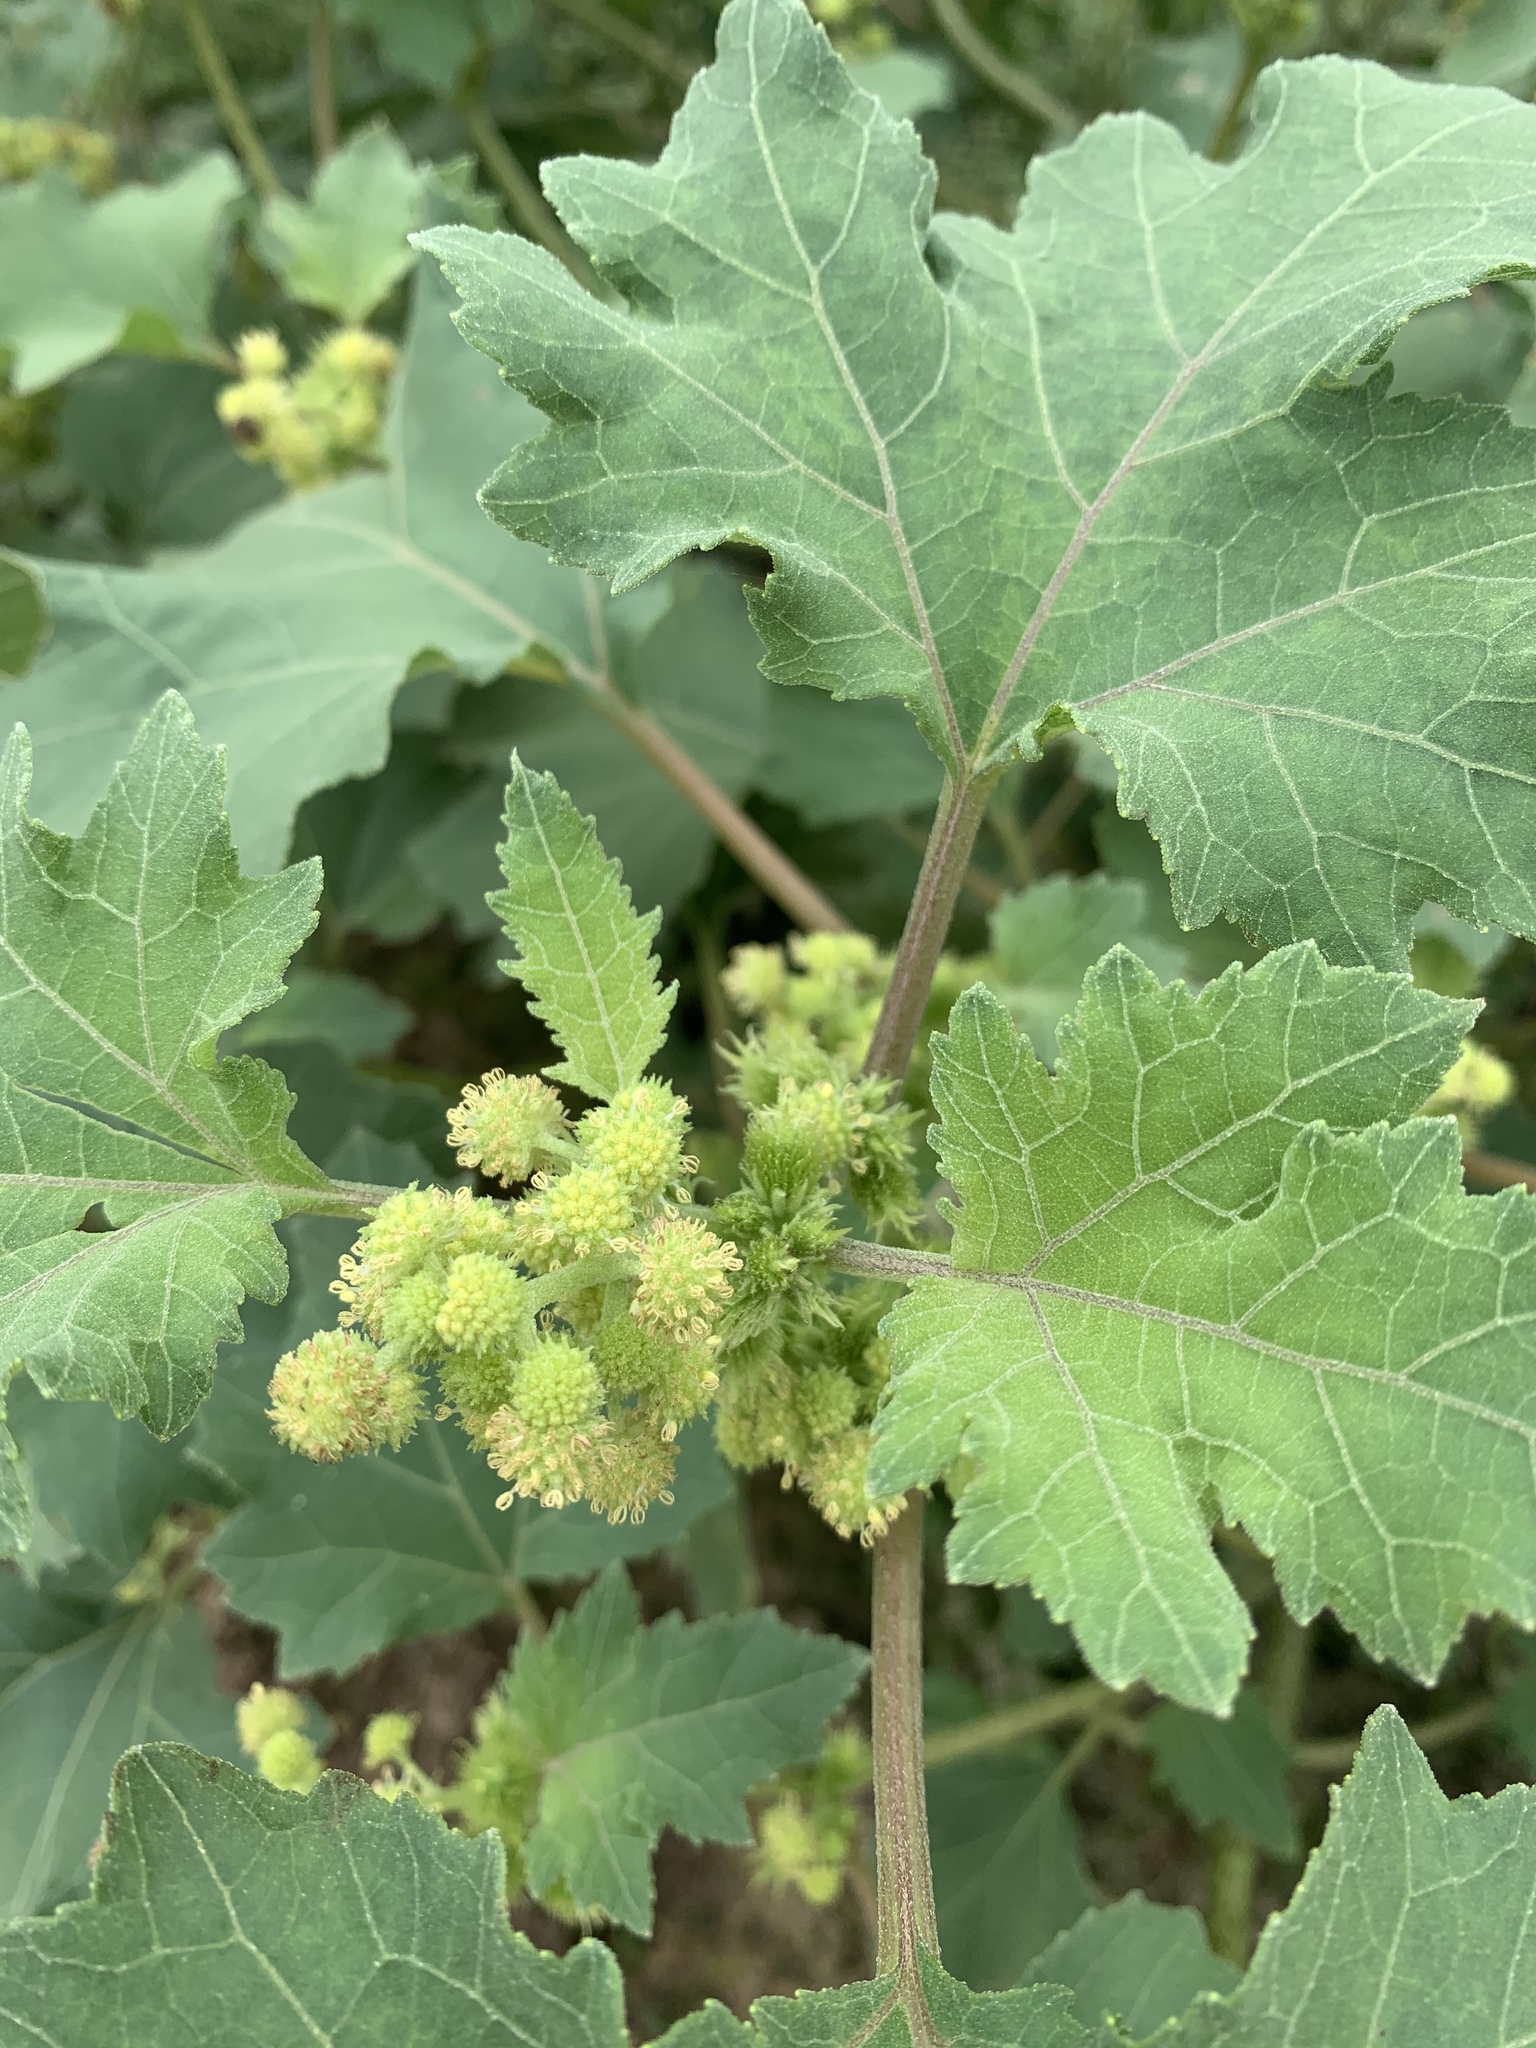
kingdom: Plantae
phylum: Tracheophyta
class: Magnoliopsida
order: Asterales
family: Asteraceae
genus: Xanthium
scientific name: Xanthium strumarium
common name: Rough cocklebur
